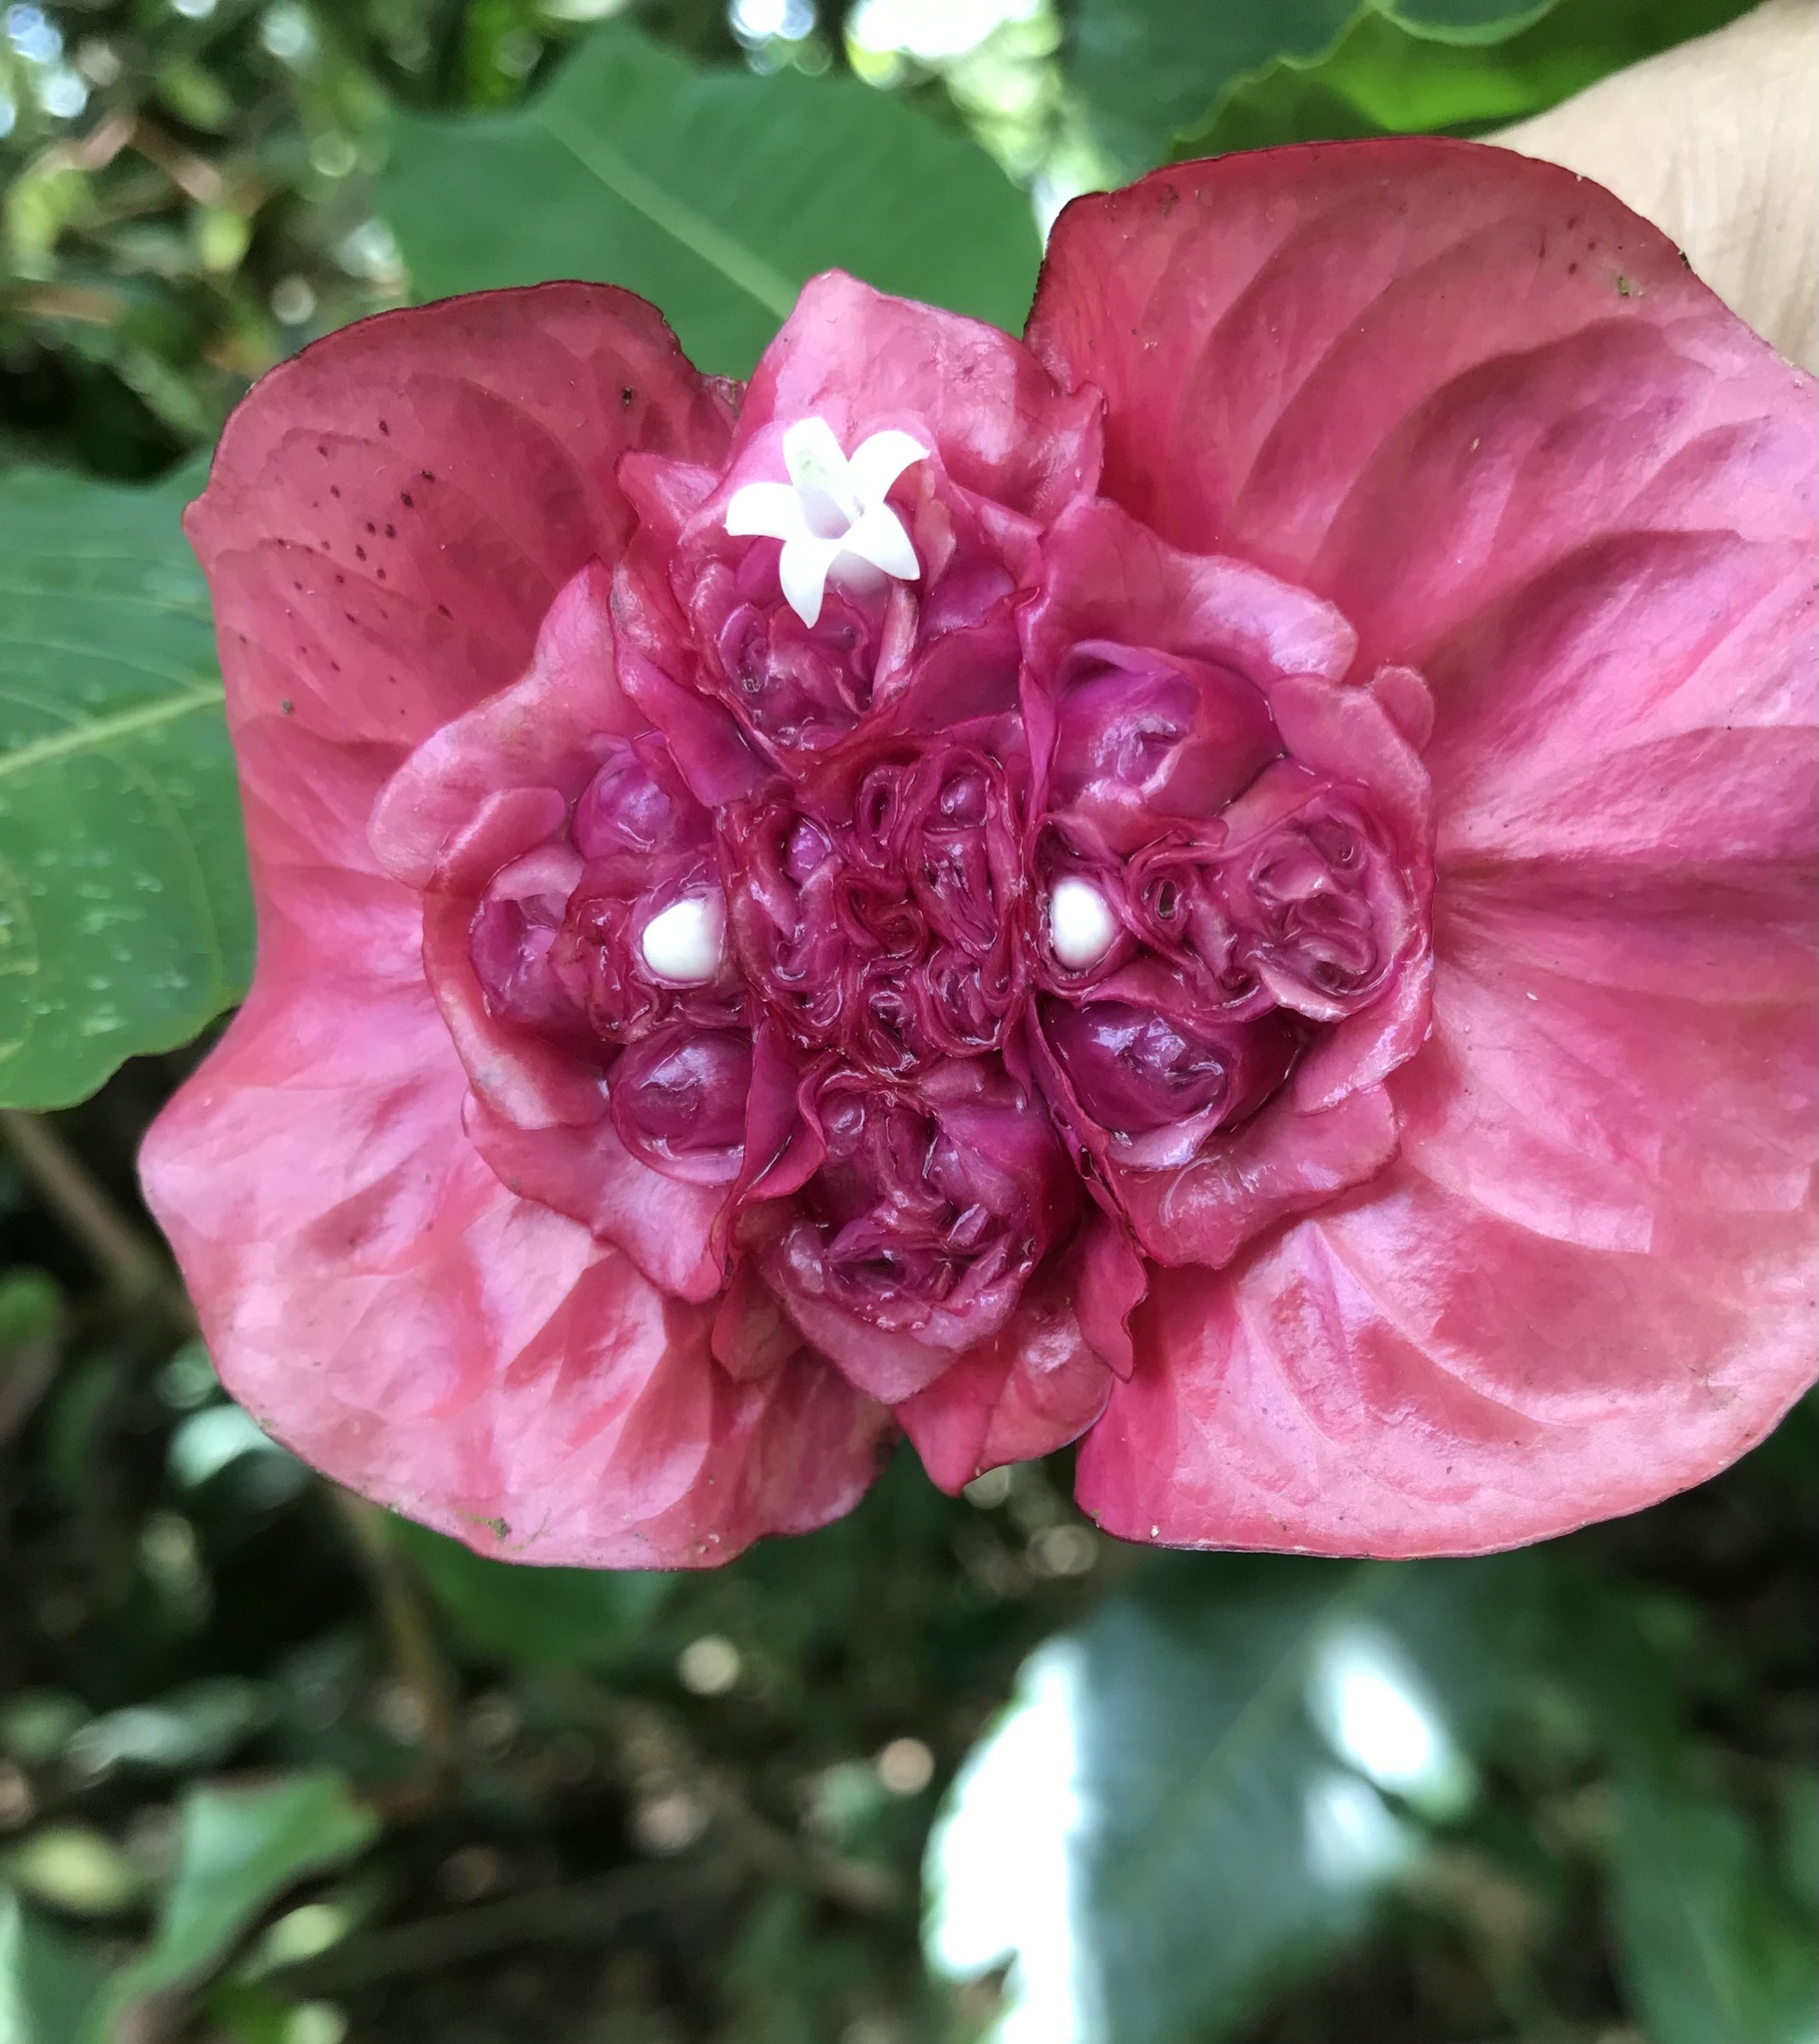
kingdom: Plantae
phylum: Tracheophyta
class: Magnoliopsida
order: Gentianales
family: Rubiaceae
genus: Palicourea
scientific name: Palicourea correae
